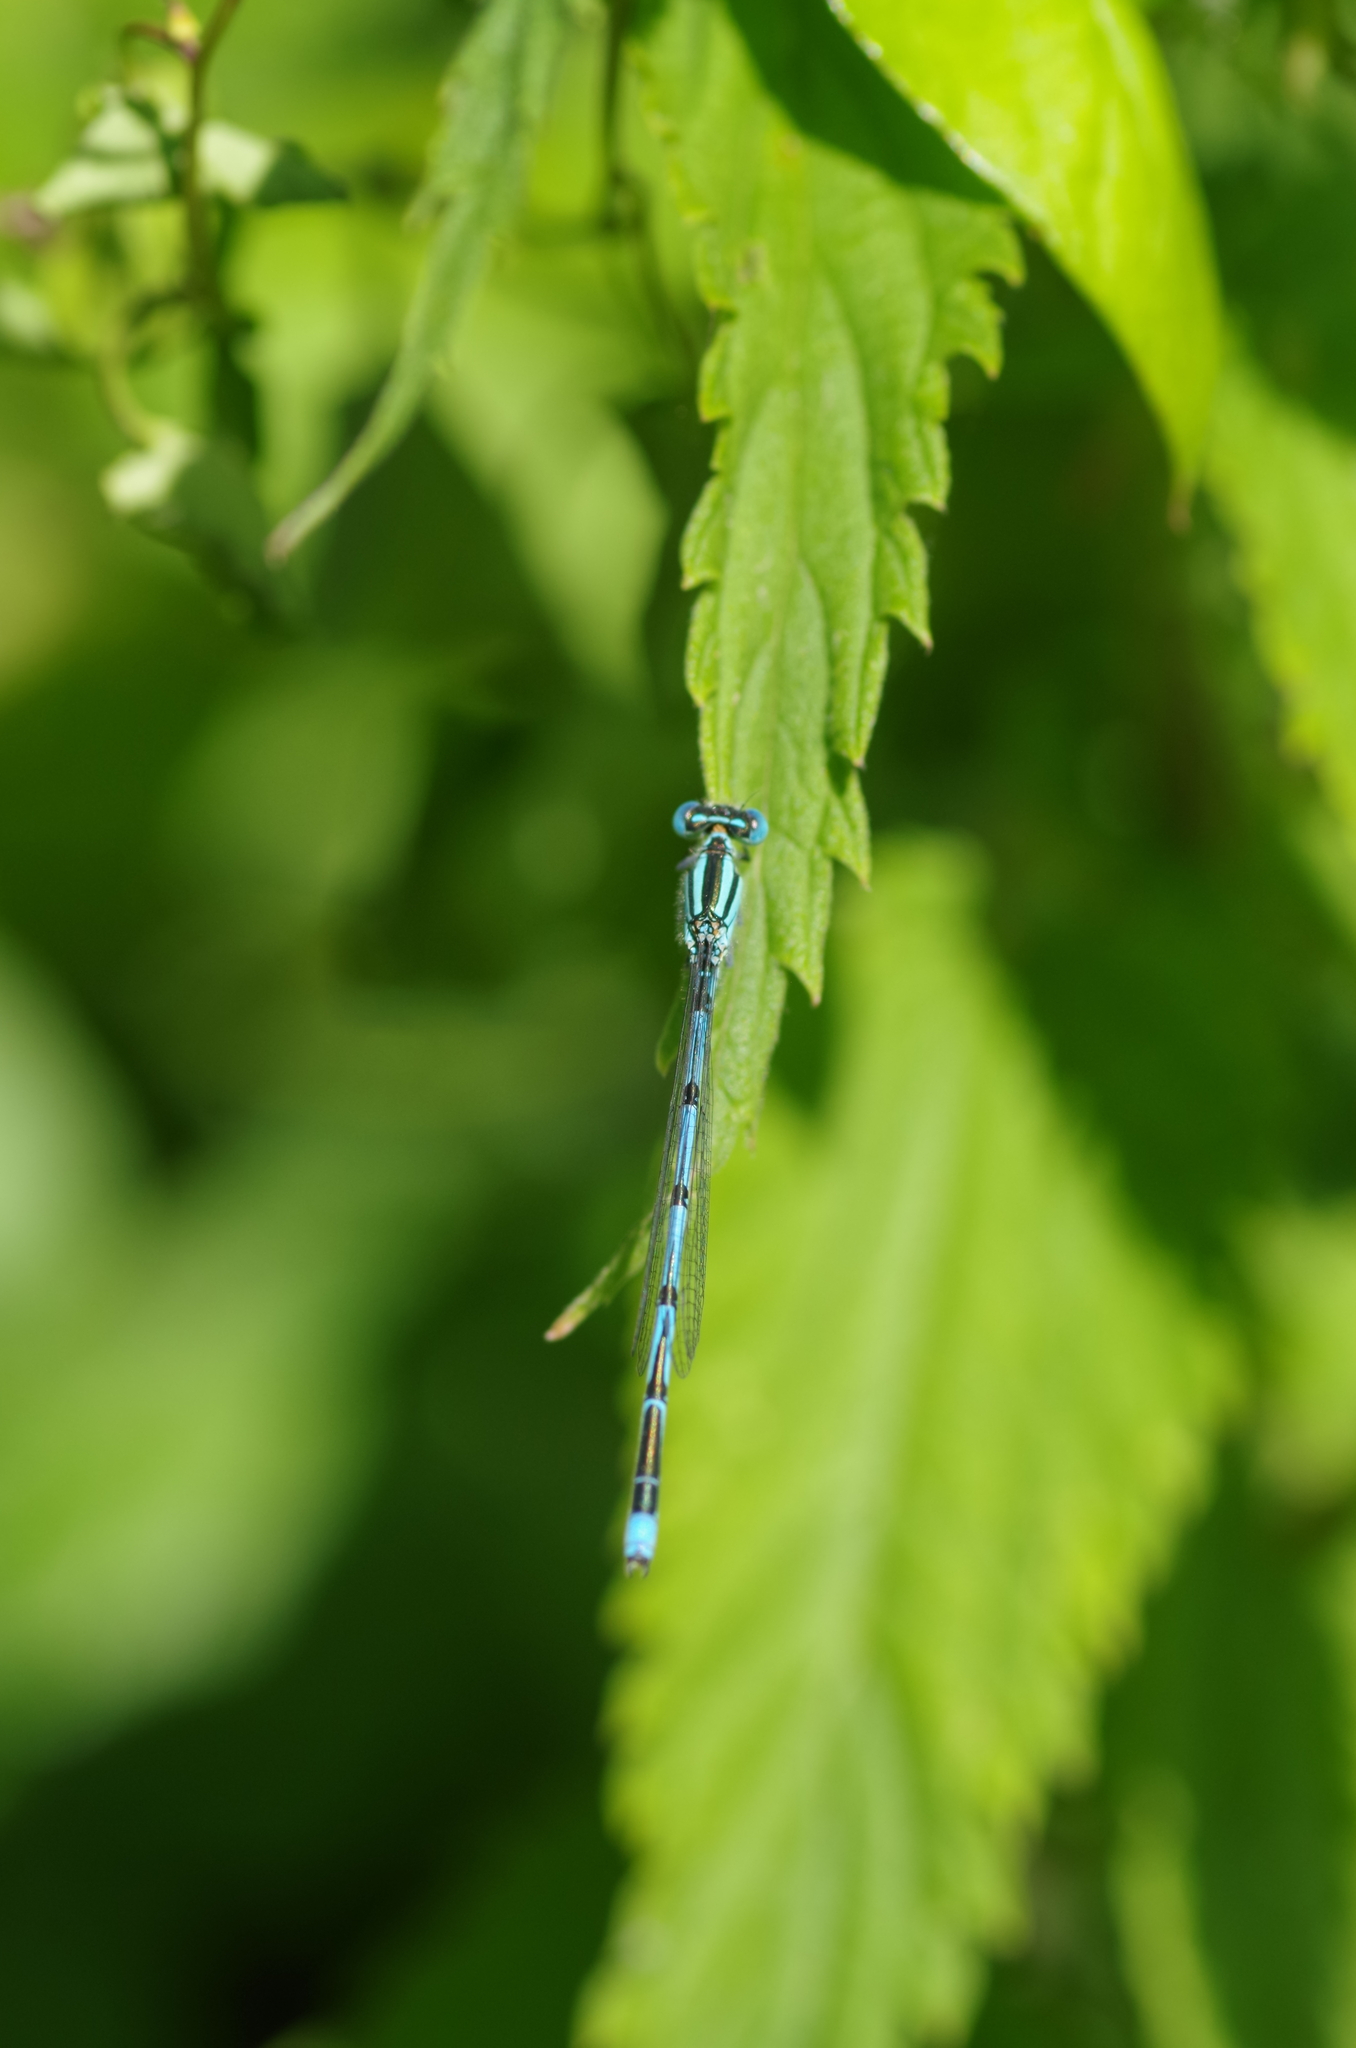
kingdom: Animalia
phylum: Arthropoda
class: Insecta
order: Odonata
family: Coenagrionidae
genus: Erythromma
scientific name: Erythromma lindenii
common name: Blue-eye
